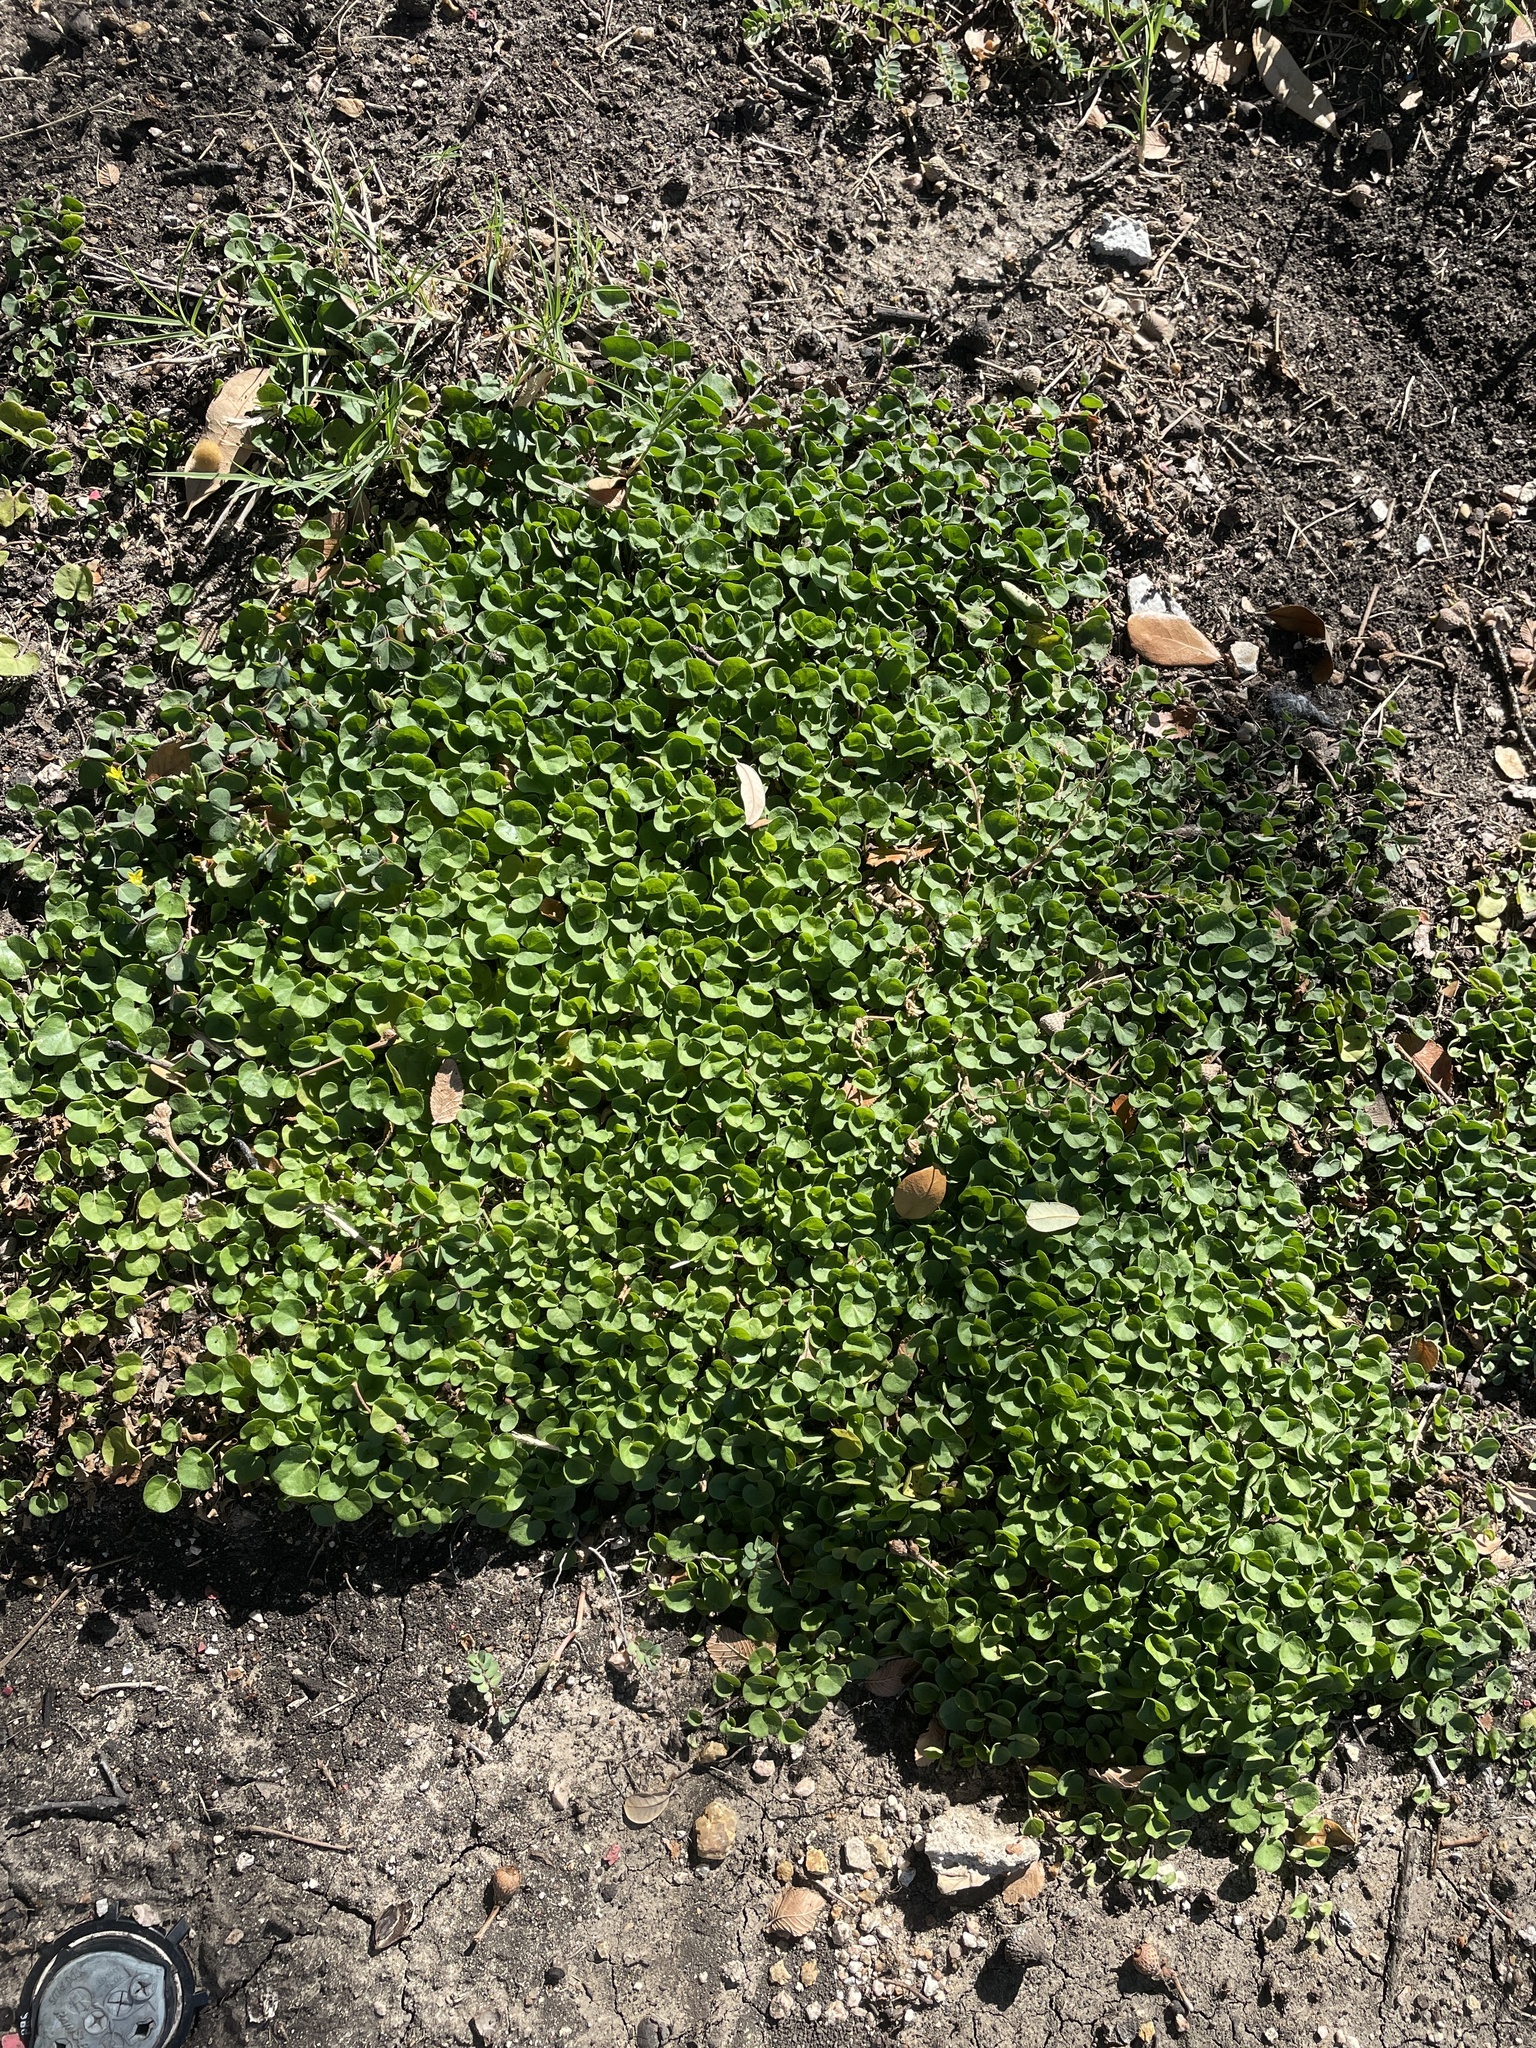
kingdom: Plantae
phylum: Tracheophyta
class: Magnoliopsida
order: Solanales
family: Convolvulaceae
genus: Dichondra
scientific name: Dichondra carolinensis
